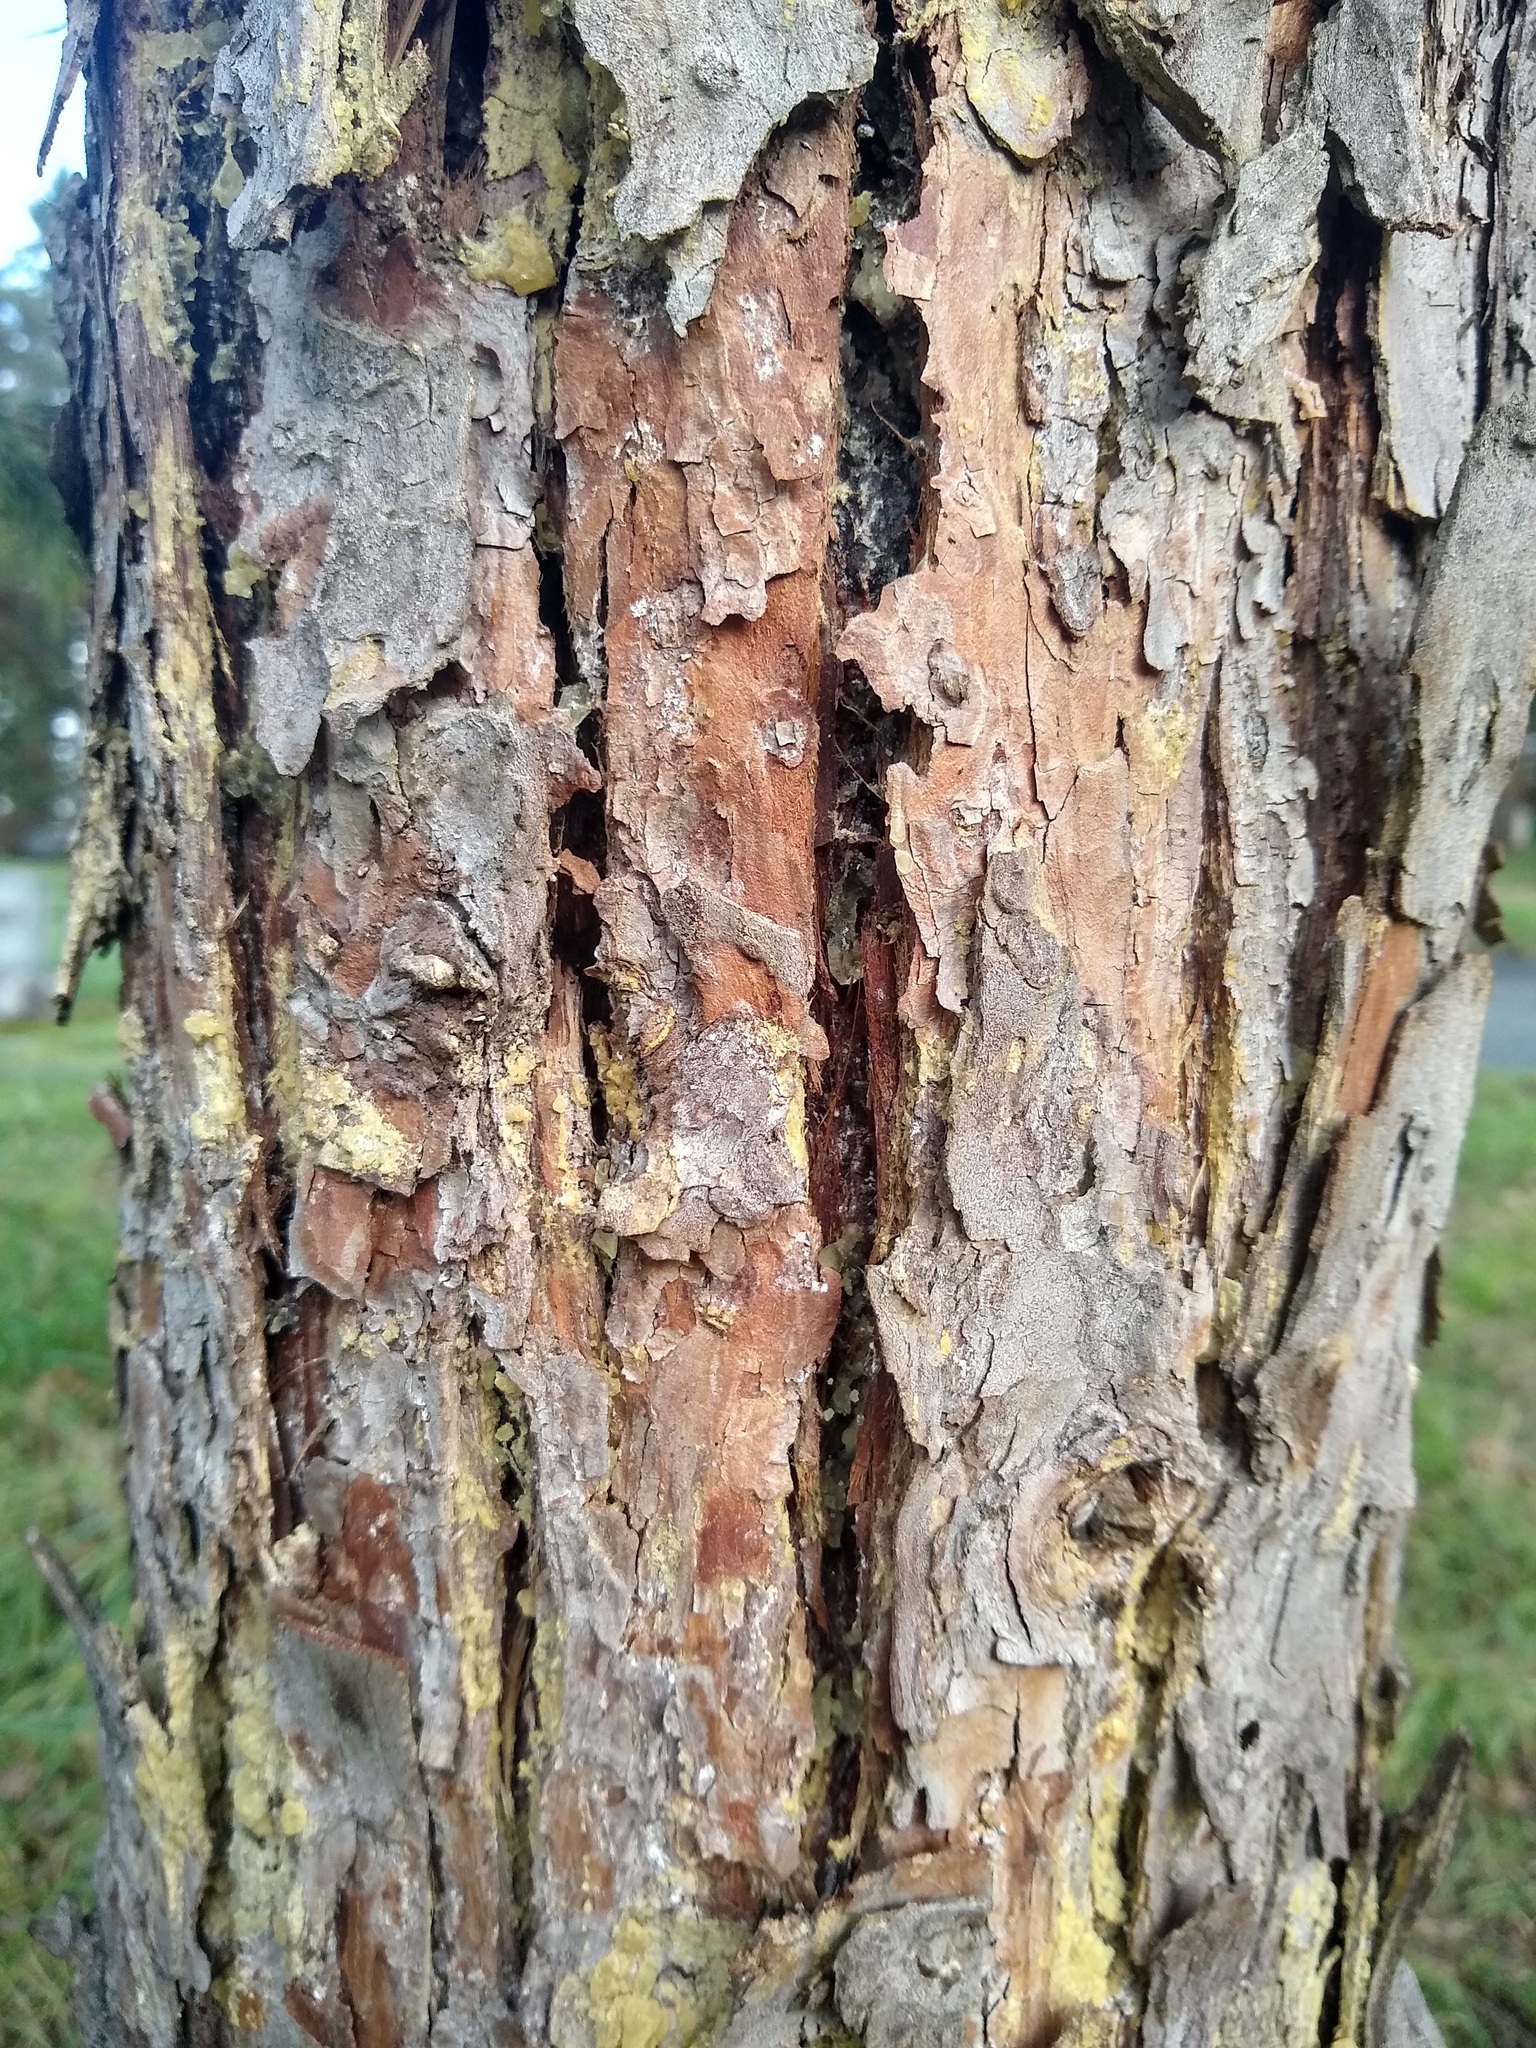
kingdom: Plantae
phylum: Tracheophyta
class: Pinopsida
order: Pinales
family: Cupressaceae
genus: Calocedrus
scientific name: Calocedrus decurrens
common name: Californian incense-cedar
